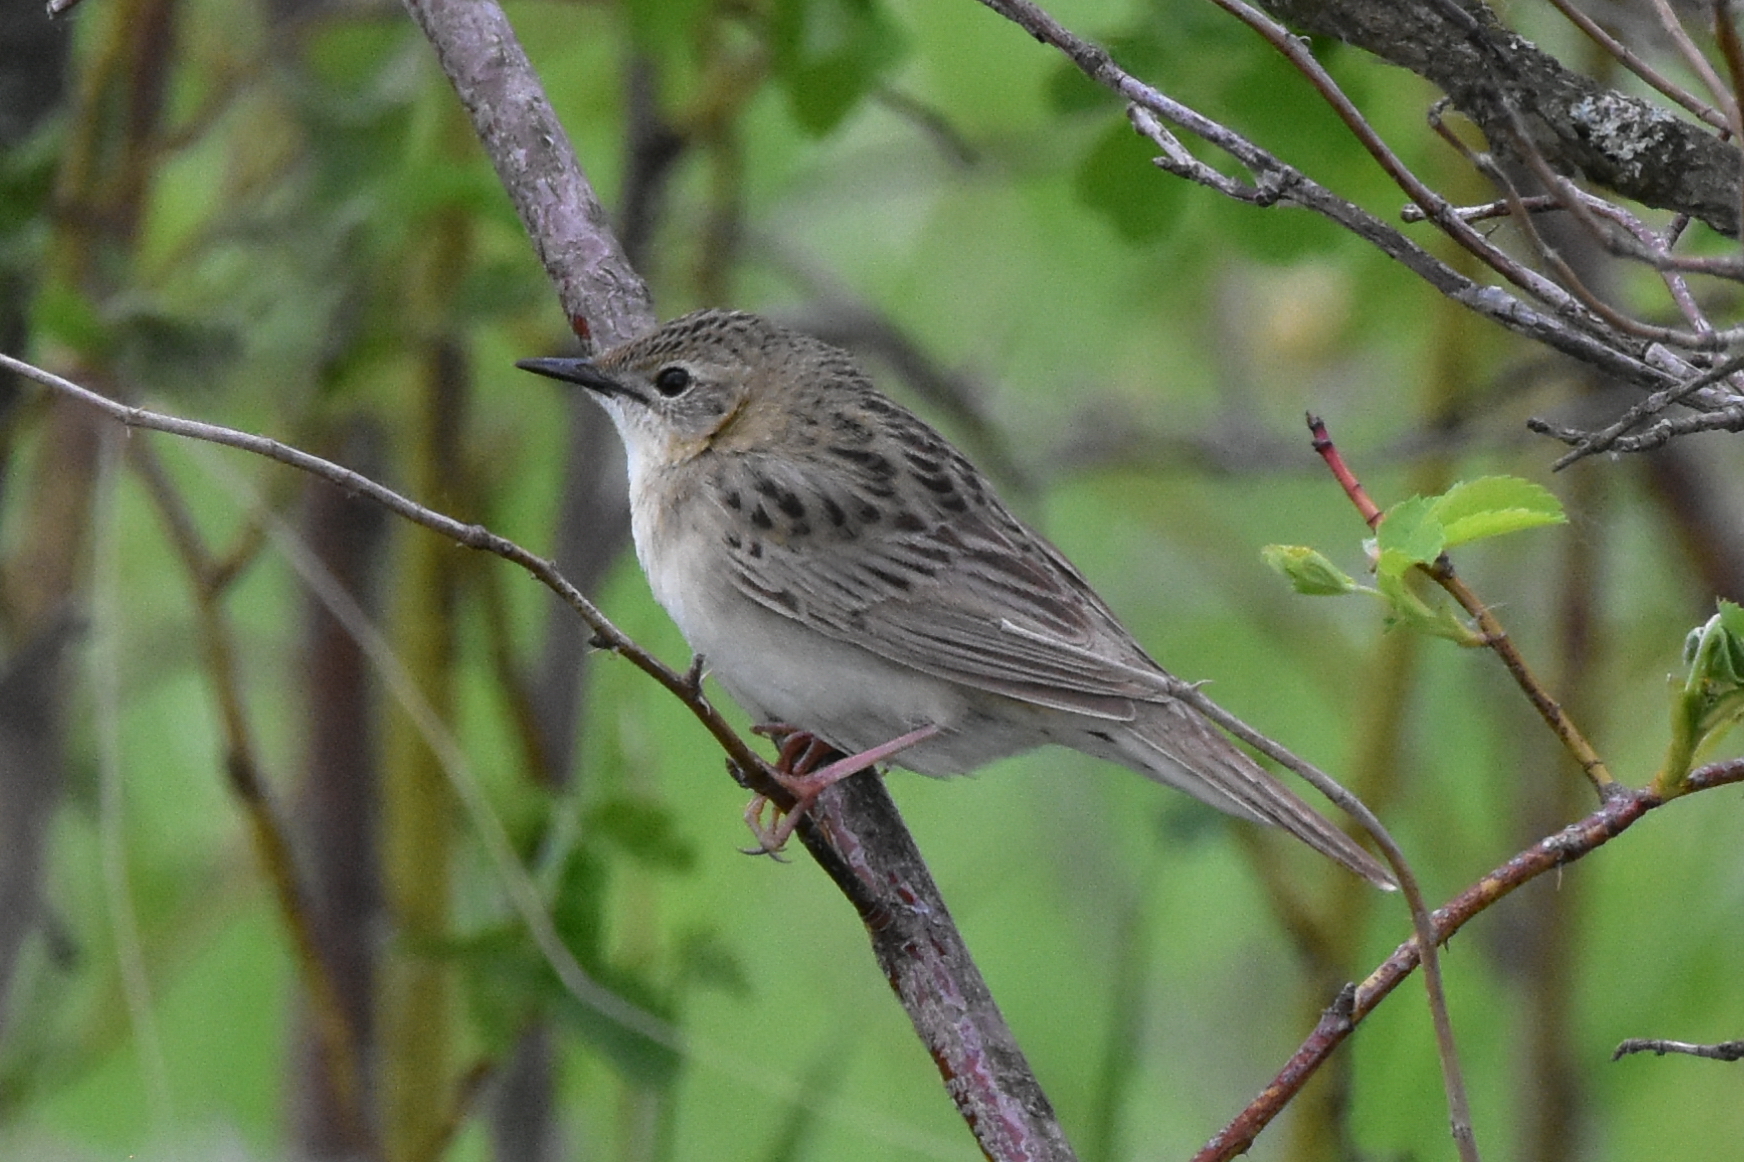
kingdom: Animalia
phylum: Chordata
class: Aves
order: Passeriformes
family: Locustellidae
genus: Locustella
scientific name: Locustella naevia
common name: Common grasshopper warbler
